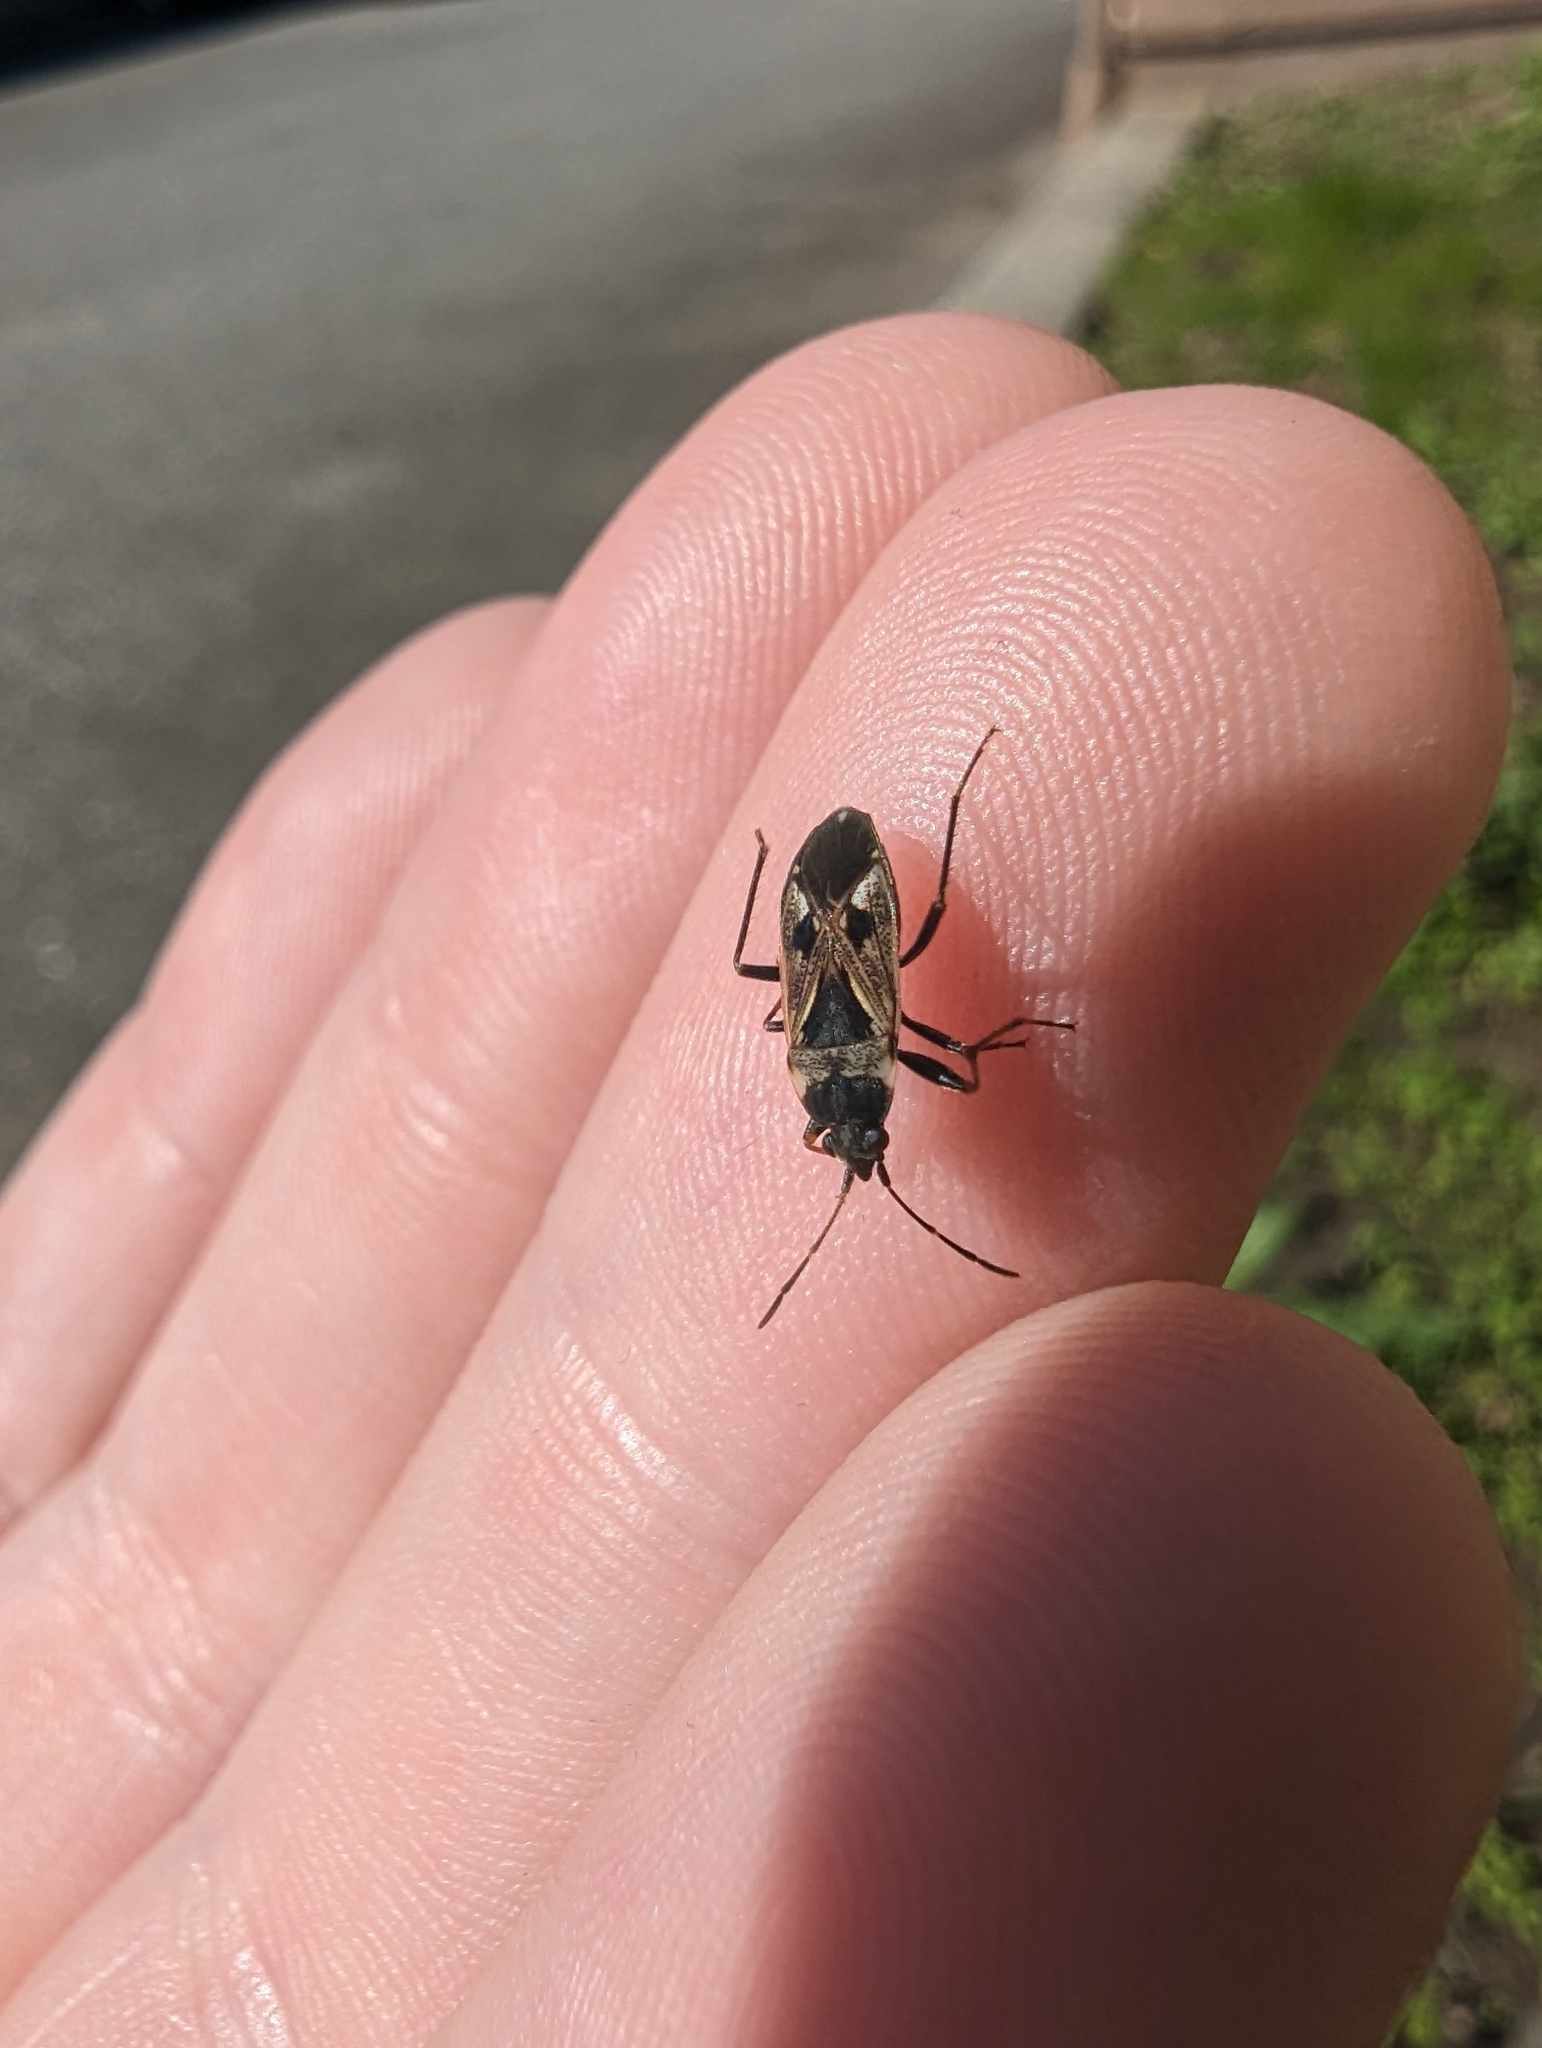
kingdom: Animalia
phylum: Arthropoda
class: Insecta
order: Hemiptera
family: Rhyparochromidae
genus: Rhyparochromus
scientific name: Rhyparochromus vulgaris
